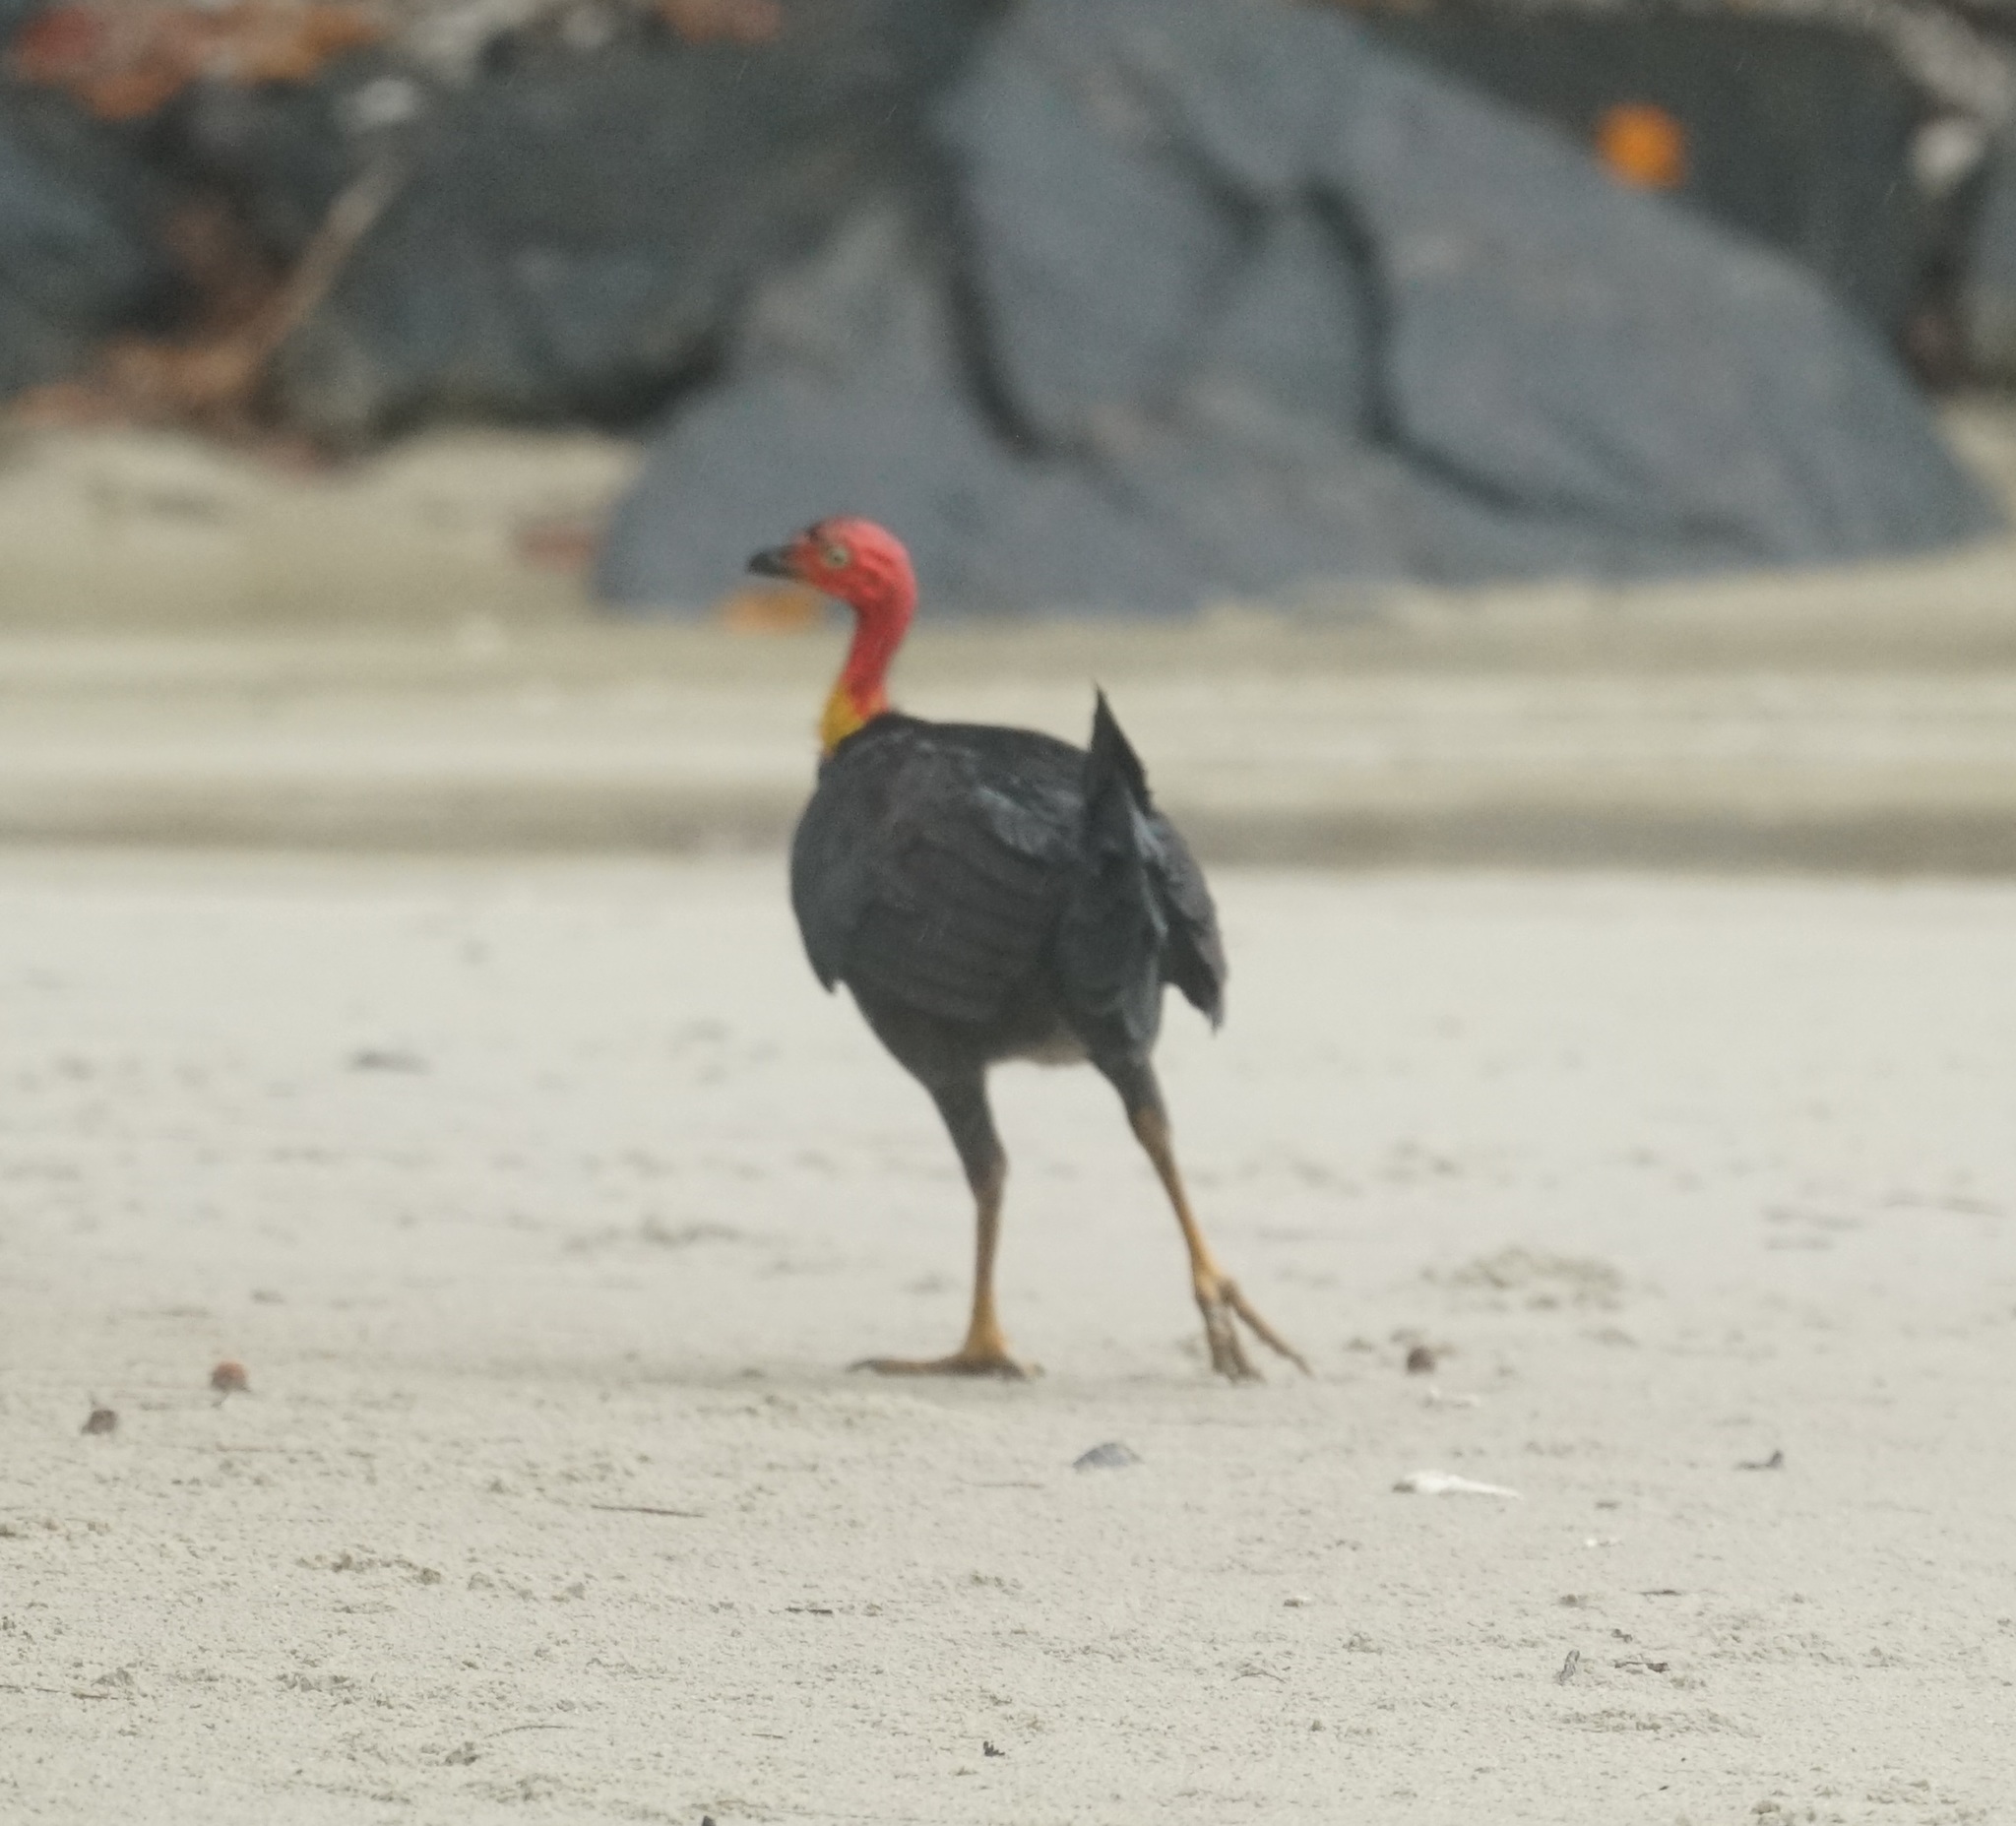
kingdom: Animalia
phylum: Chordata
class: Aves
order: Galliformes
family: Megapodiidae
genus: Alectura
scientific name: Alectura lathami
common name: Australian brushturkey
